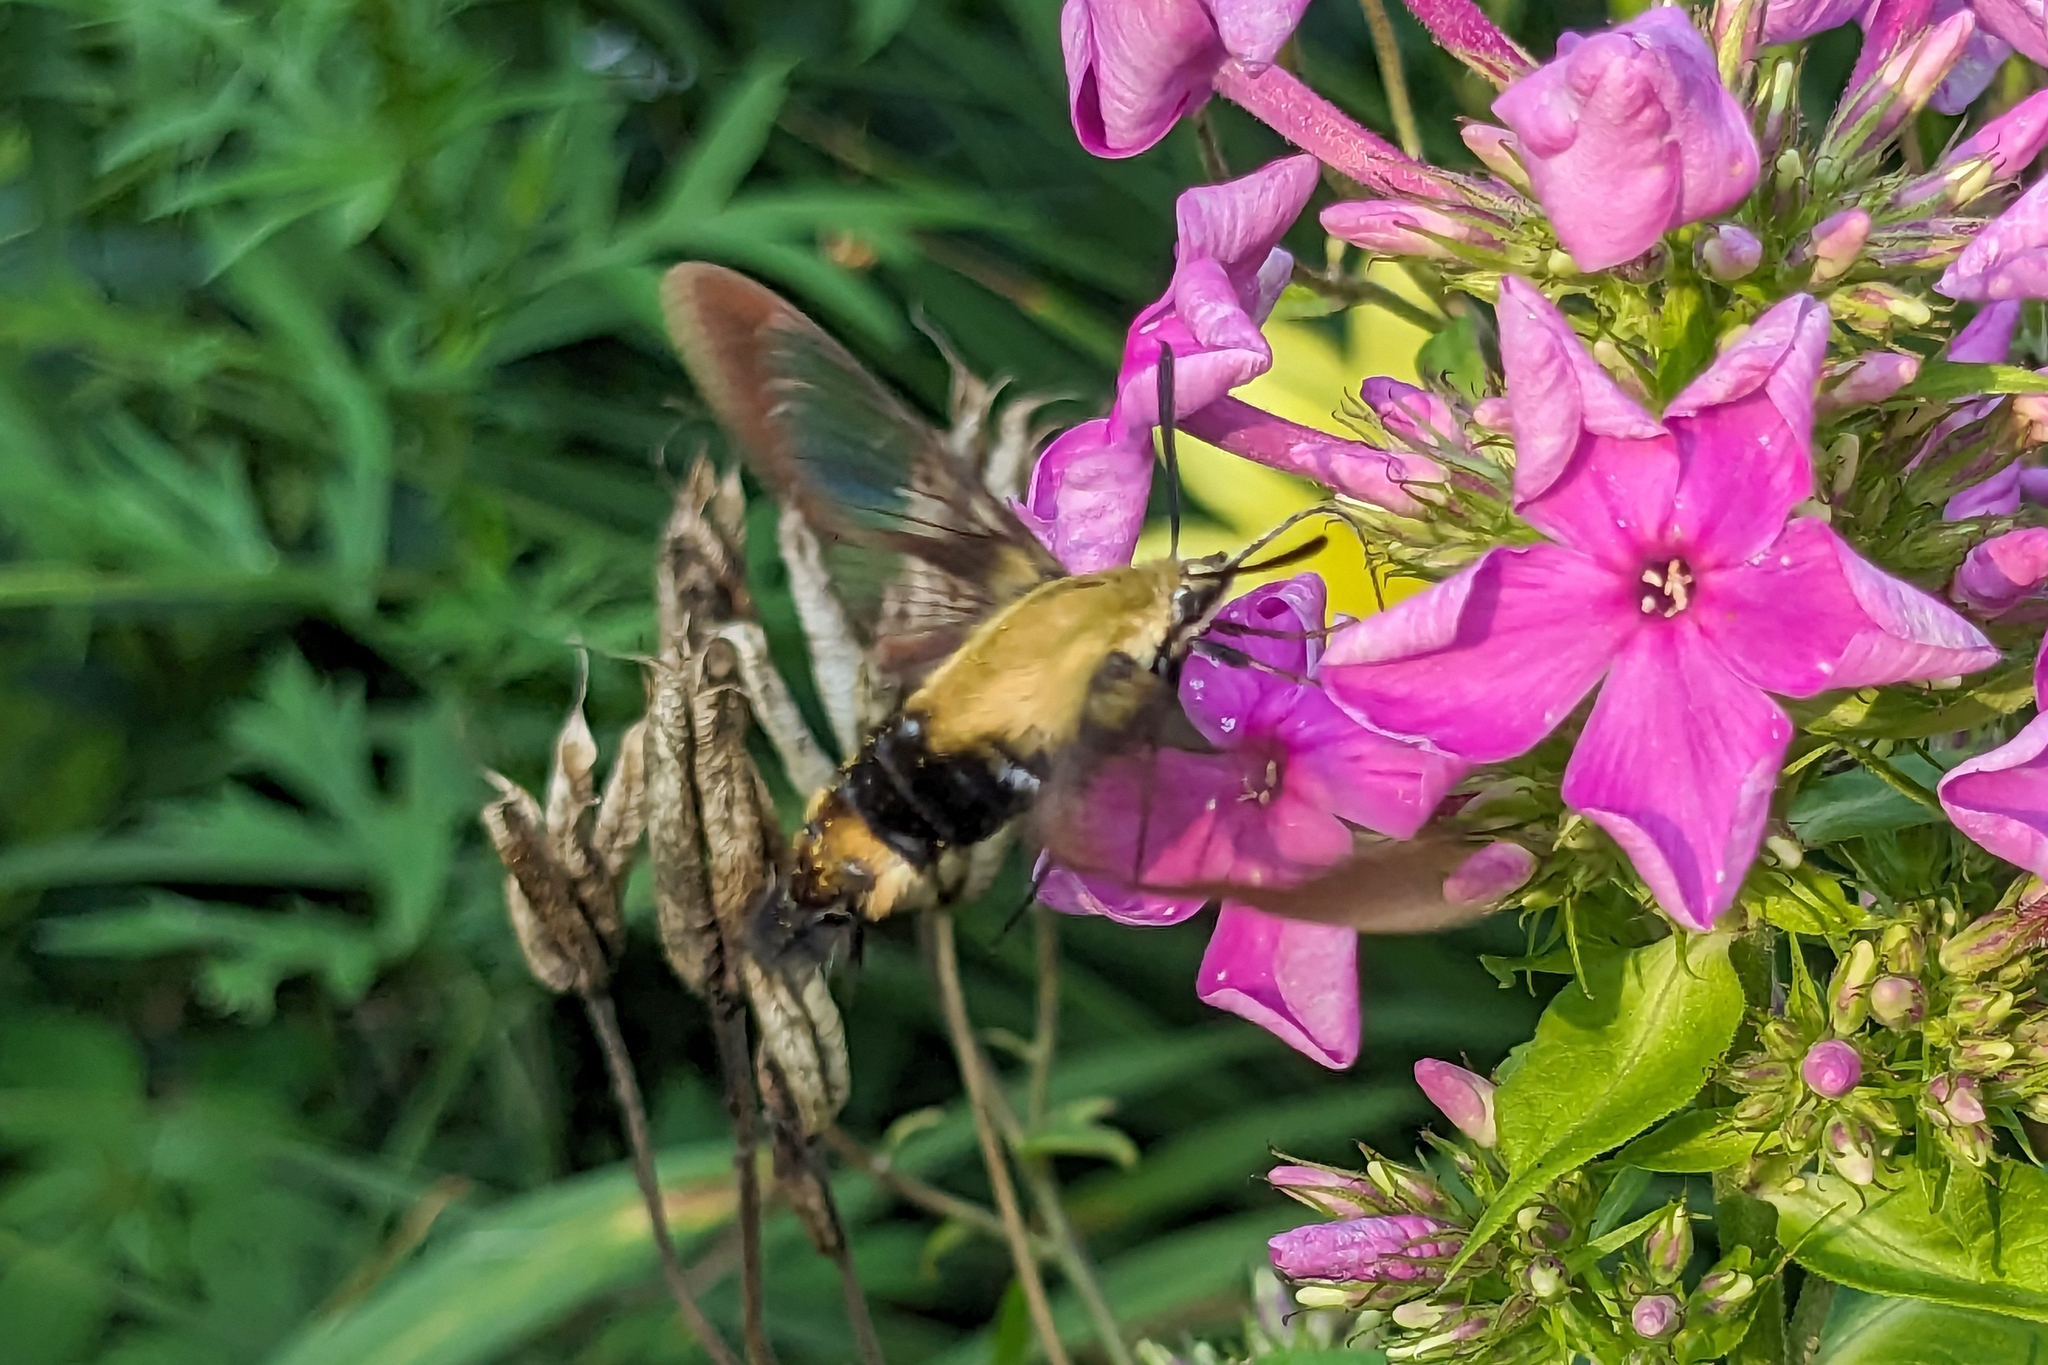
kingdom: Animalia
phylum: Arthropoda
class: Insecta
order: Lepidoptera
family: Sphingidae
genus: Hemaris
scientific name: Hemaris diffinis
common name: Bumblebee moth
